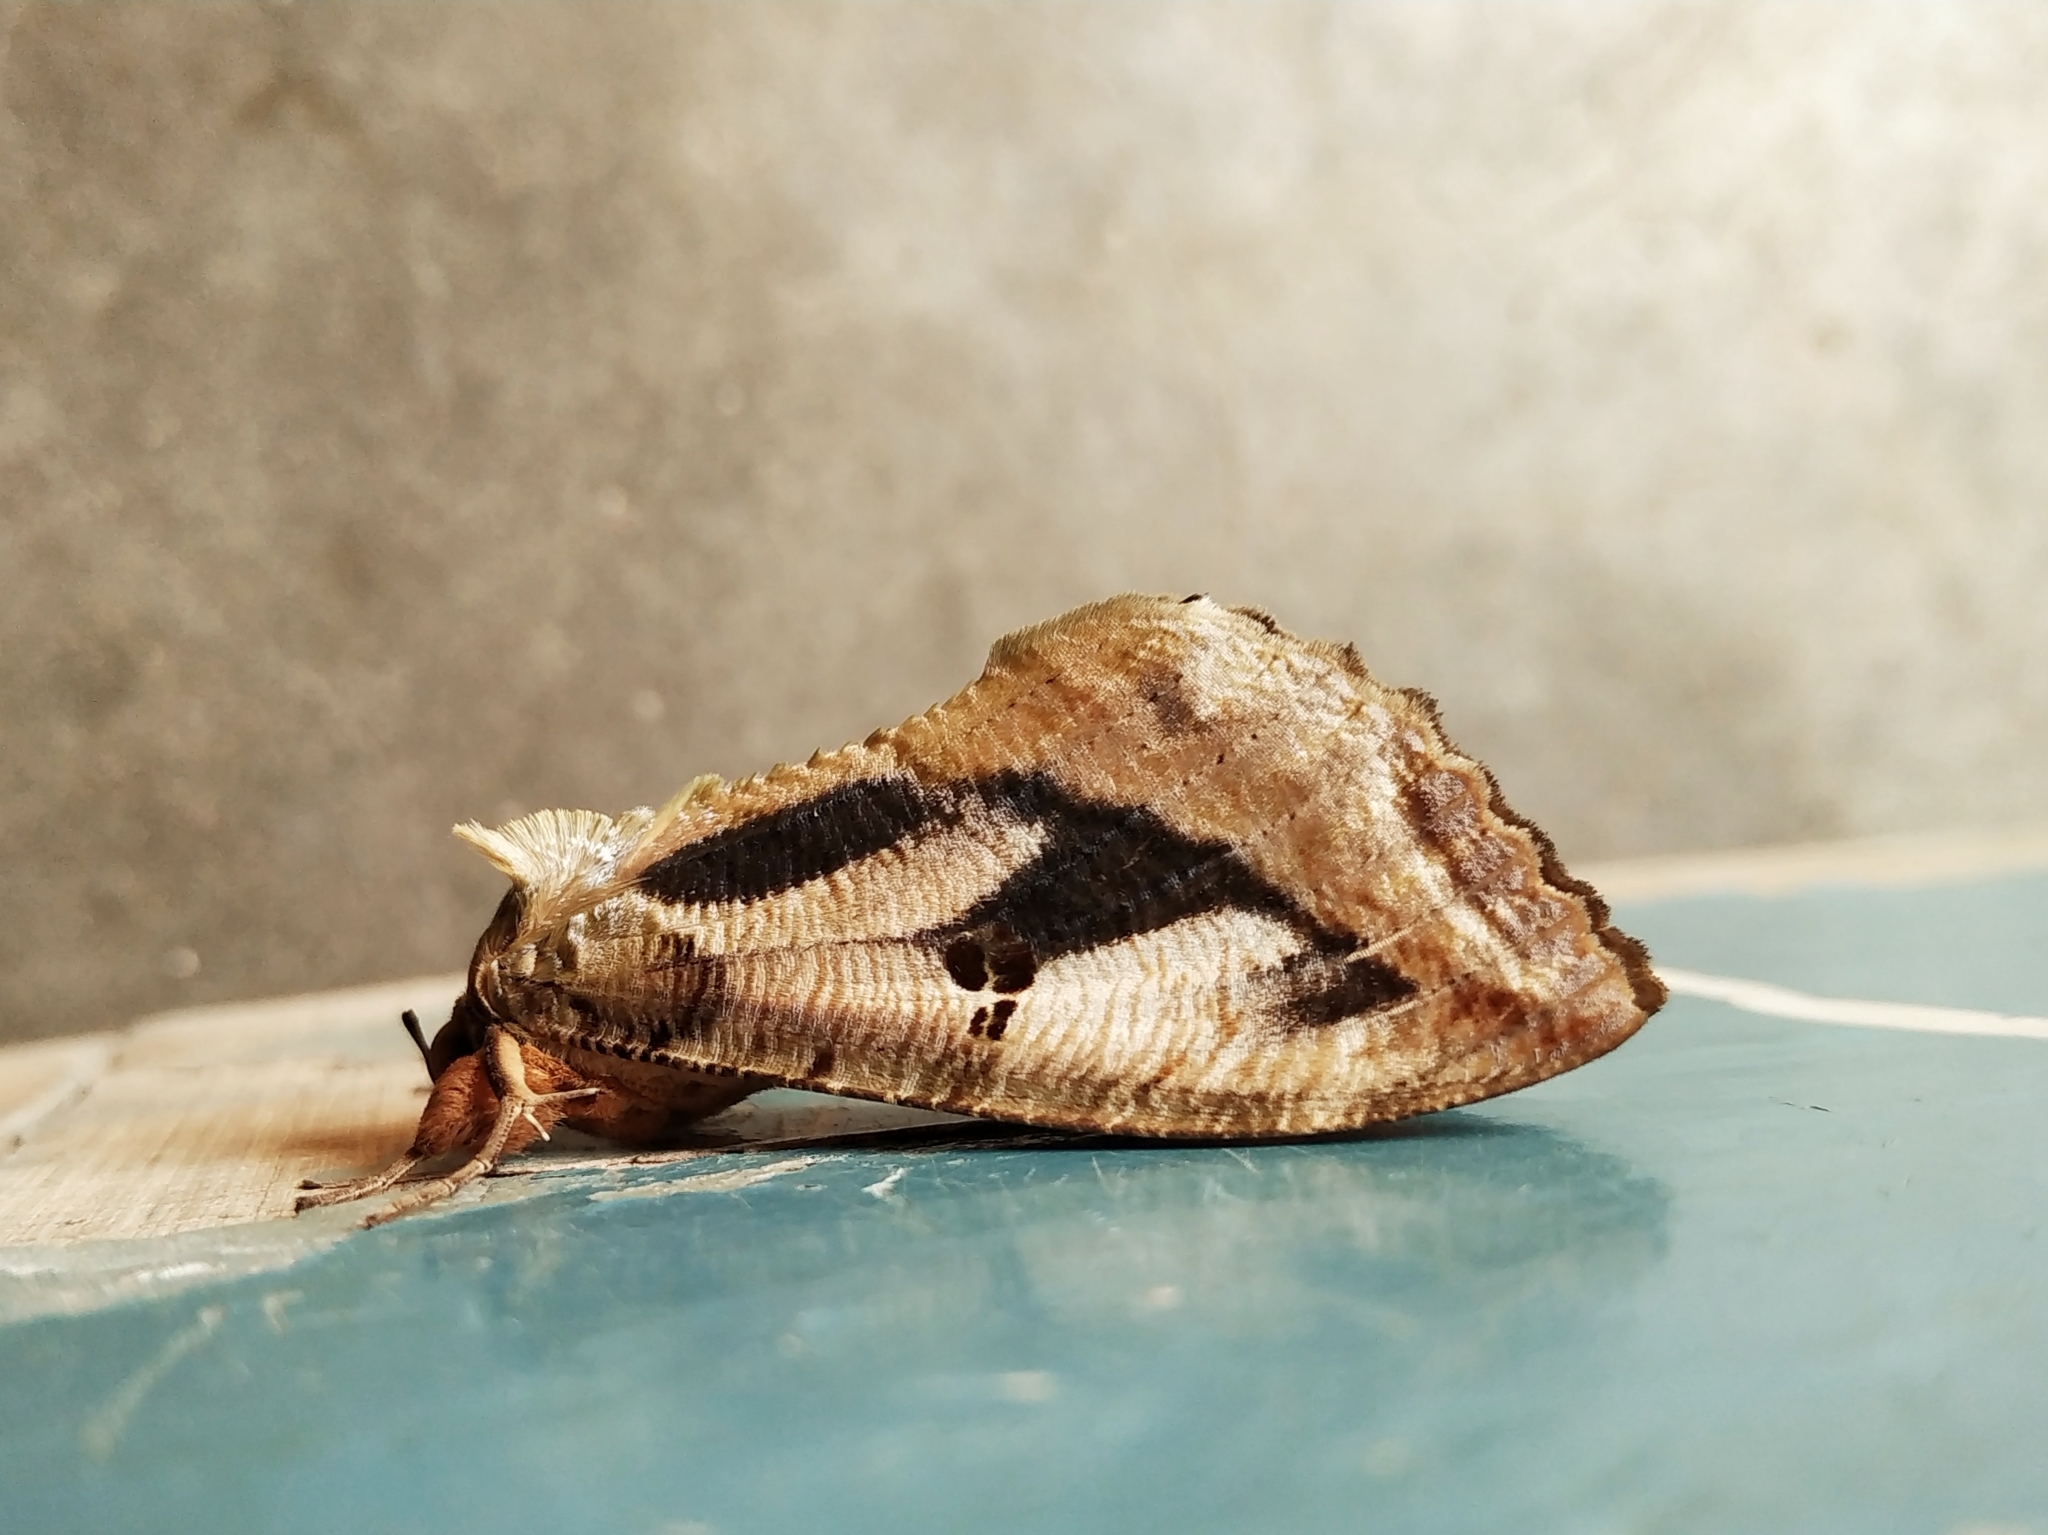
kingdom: Animalia
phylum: Arthropoda
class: Insecta
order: Lepidoptera
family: Erebidae
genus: Eudocima
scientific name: Eudocima materna
